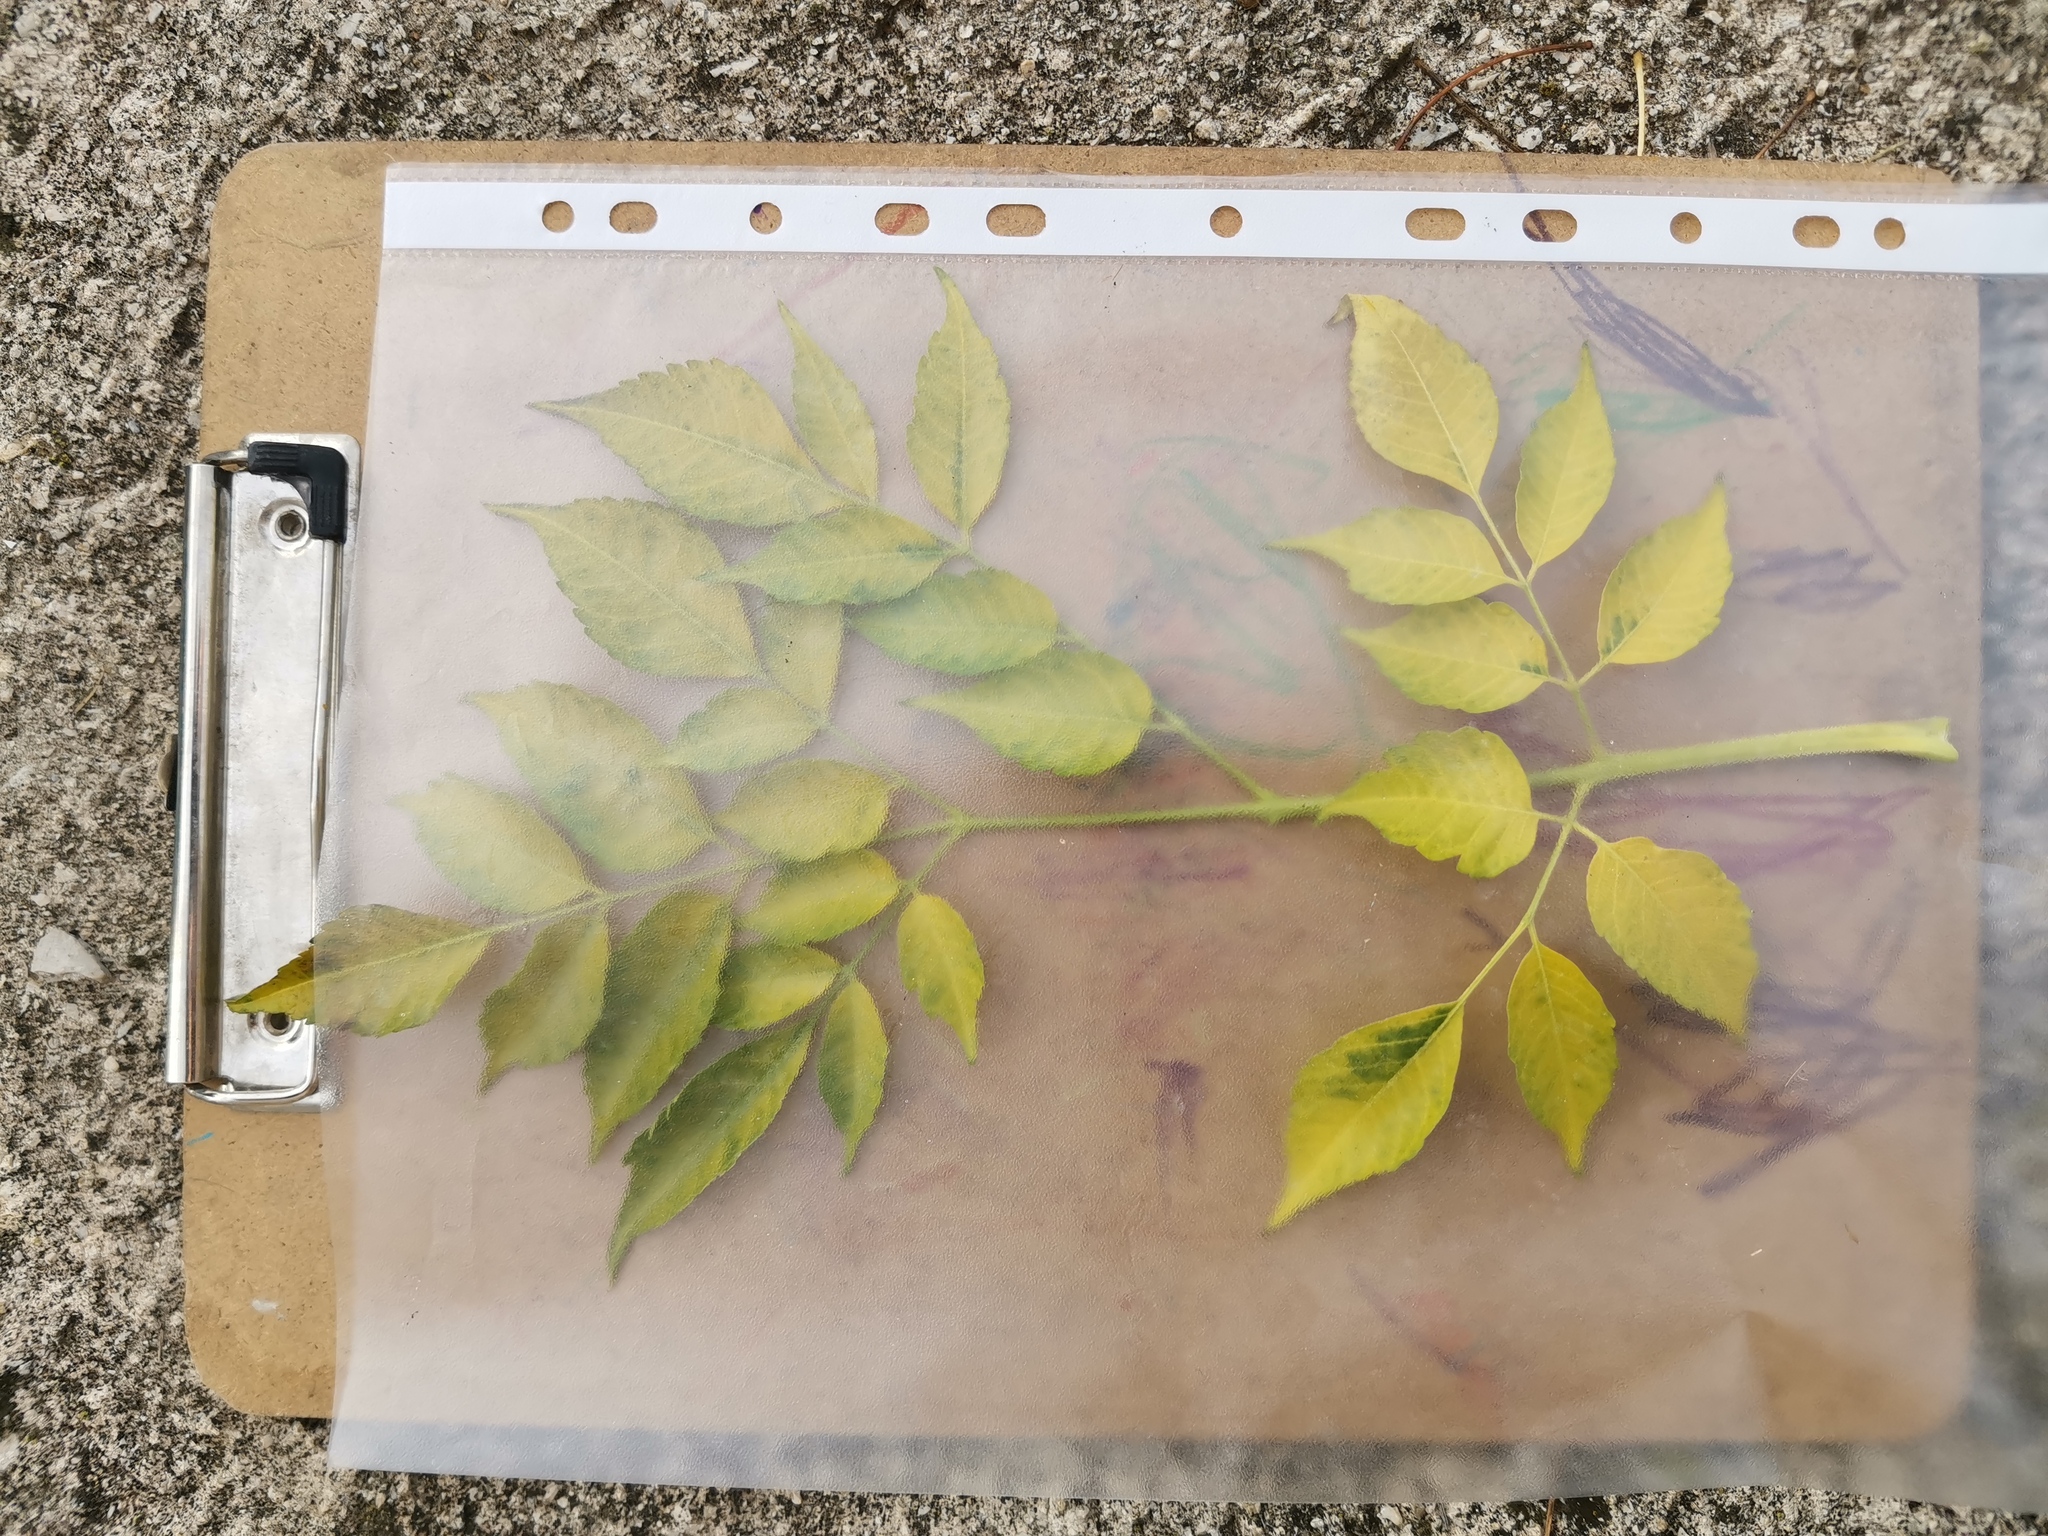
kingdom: Plantae
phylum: Tracheophyta
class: Magnoliopsida
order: Sapindales
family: Meliaceae
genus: Melia
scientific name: Melia azedarach
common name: Chinaberrytree
